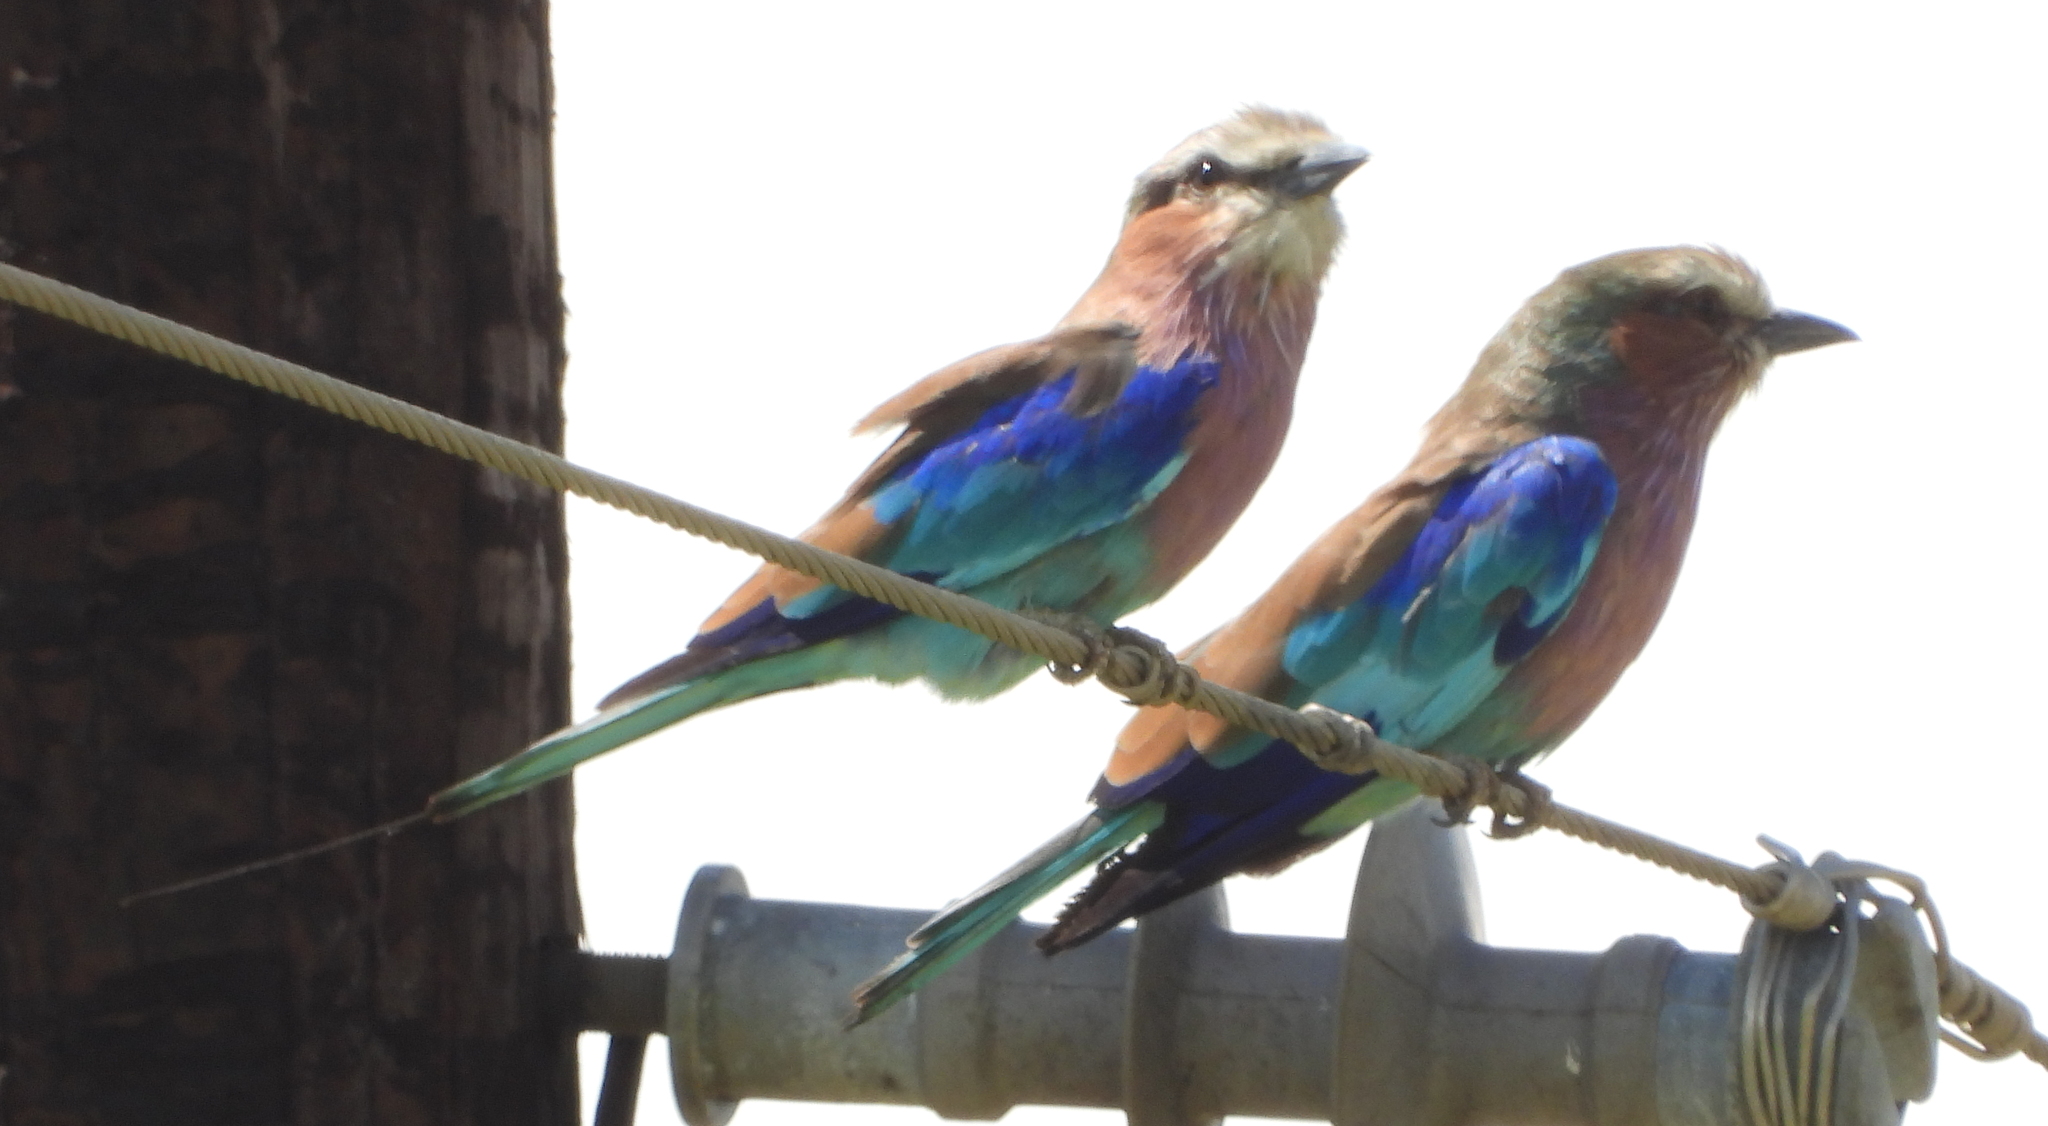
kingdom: Animalia
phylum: Chordata
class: Aves
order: Coraciiformes
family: Coraciidae
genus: Coracias
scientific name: Coracias caudatus
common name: Lilac-breasted roller
